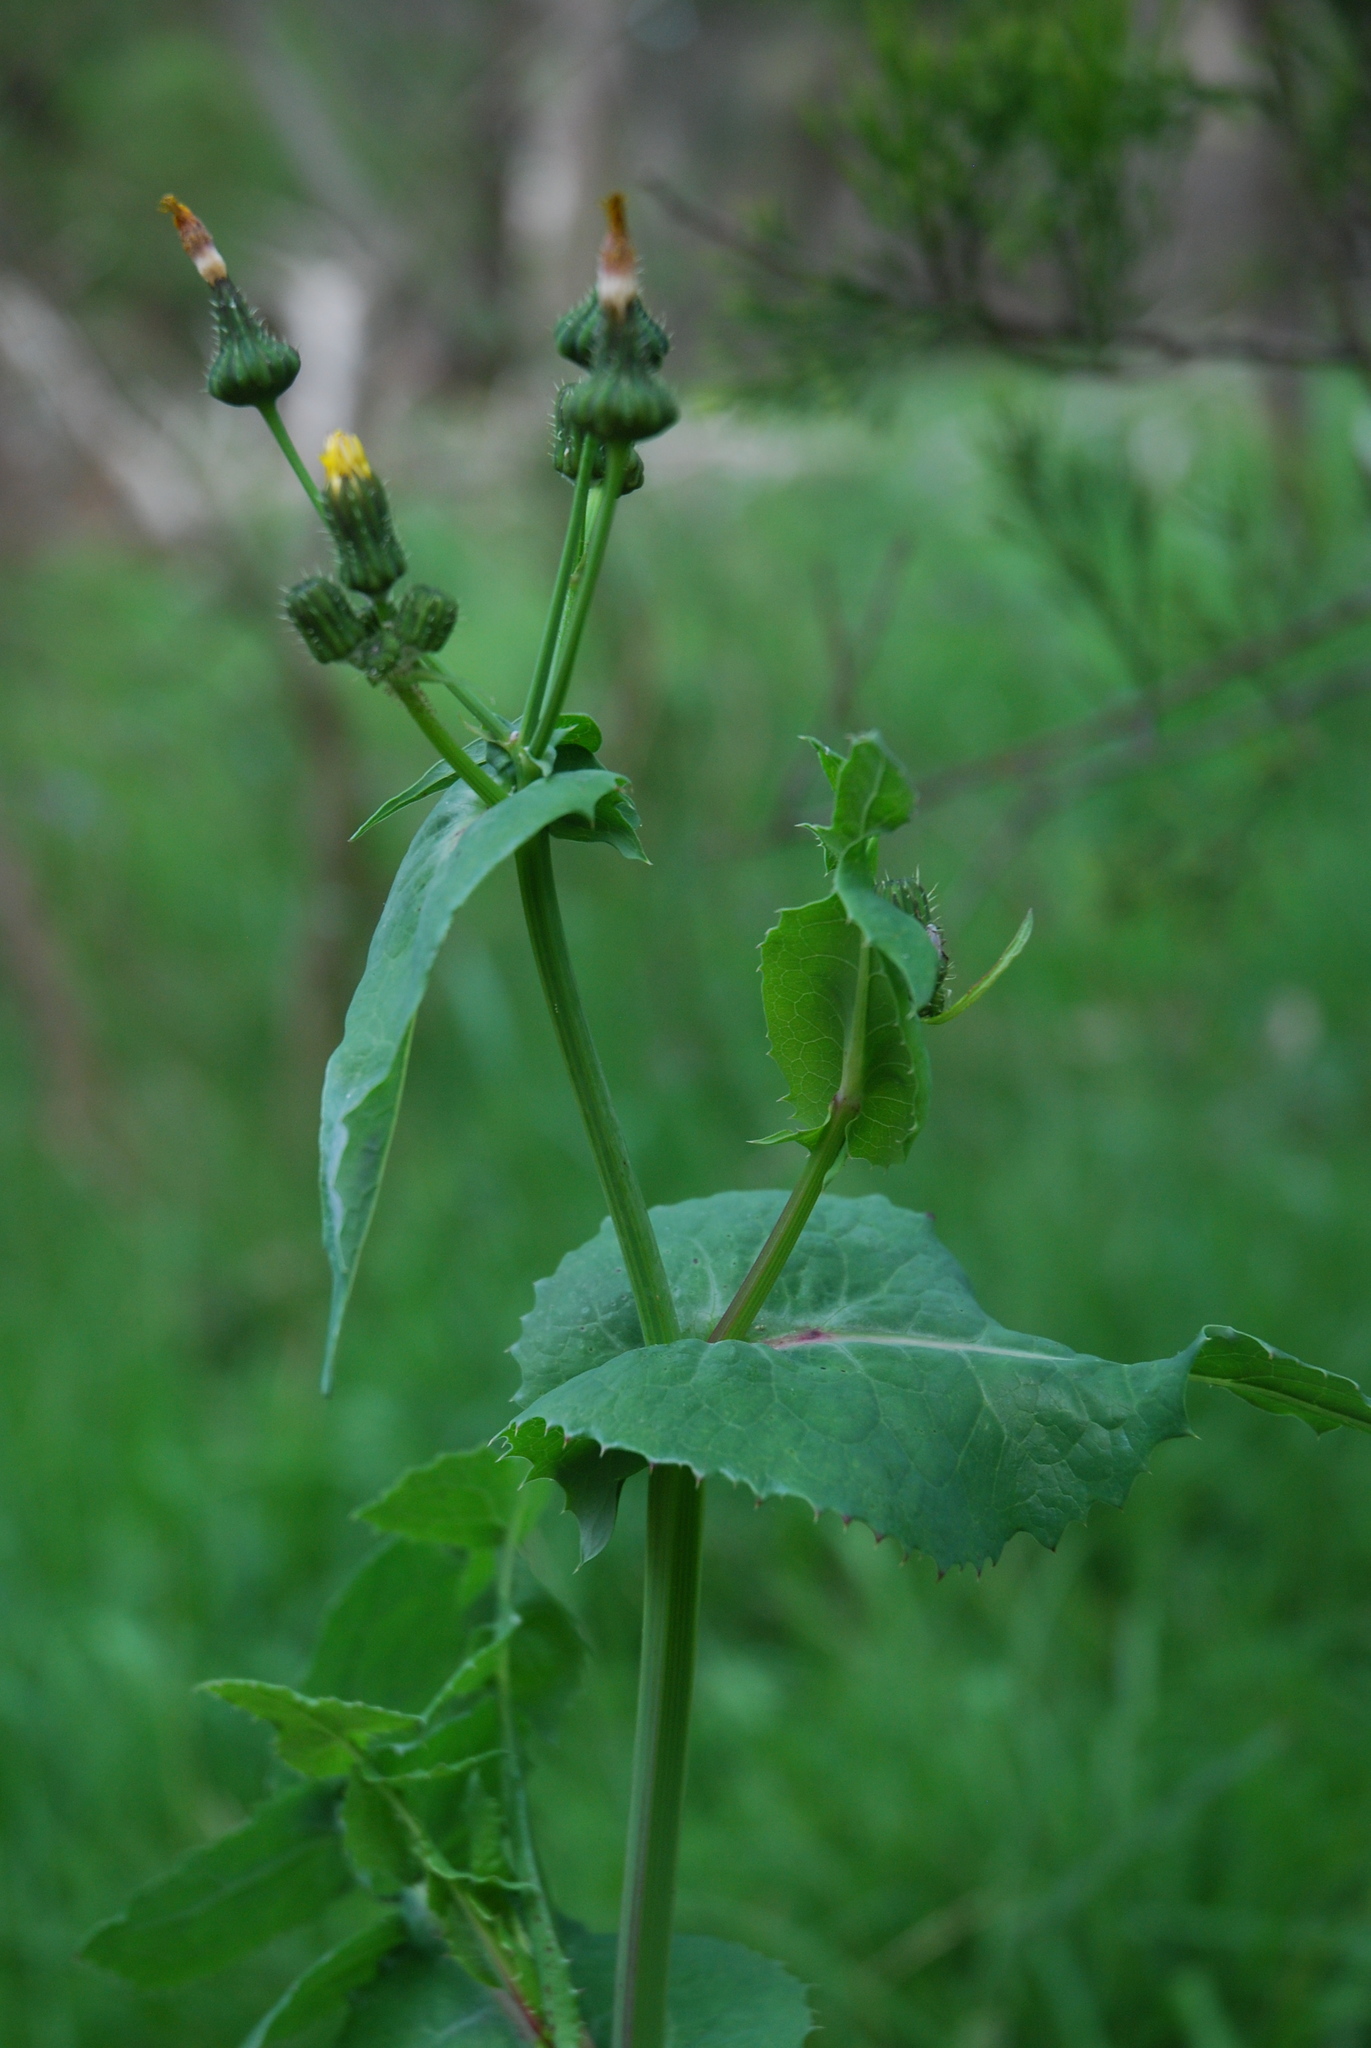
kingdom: Plantae
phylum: Tracheophyta
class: Magnoliopsida
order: Asterales
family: Asteraceae
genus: Sonchus
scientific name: Sonchus oleraceus
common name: Common sowthistle
